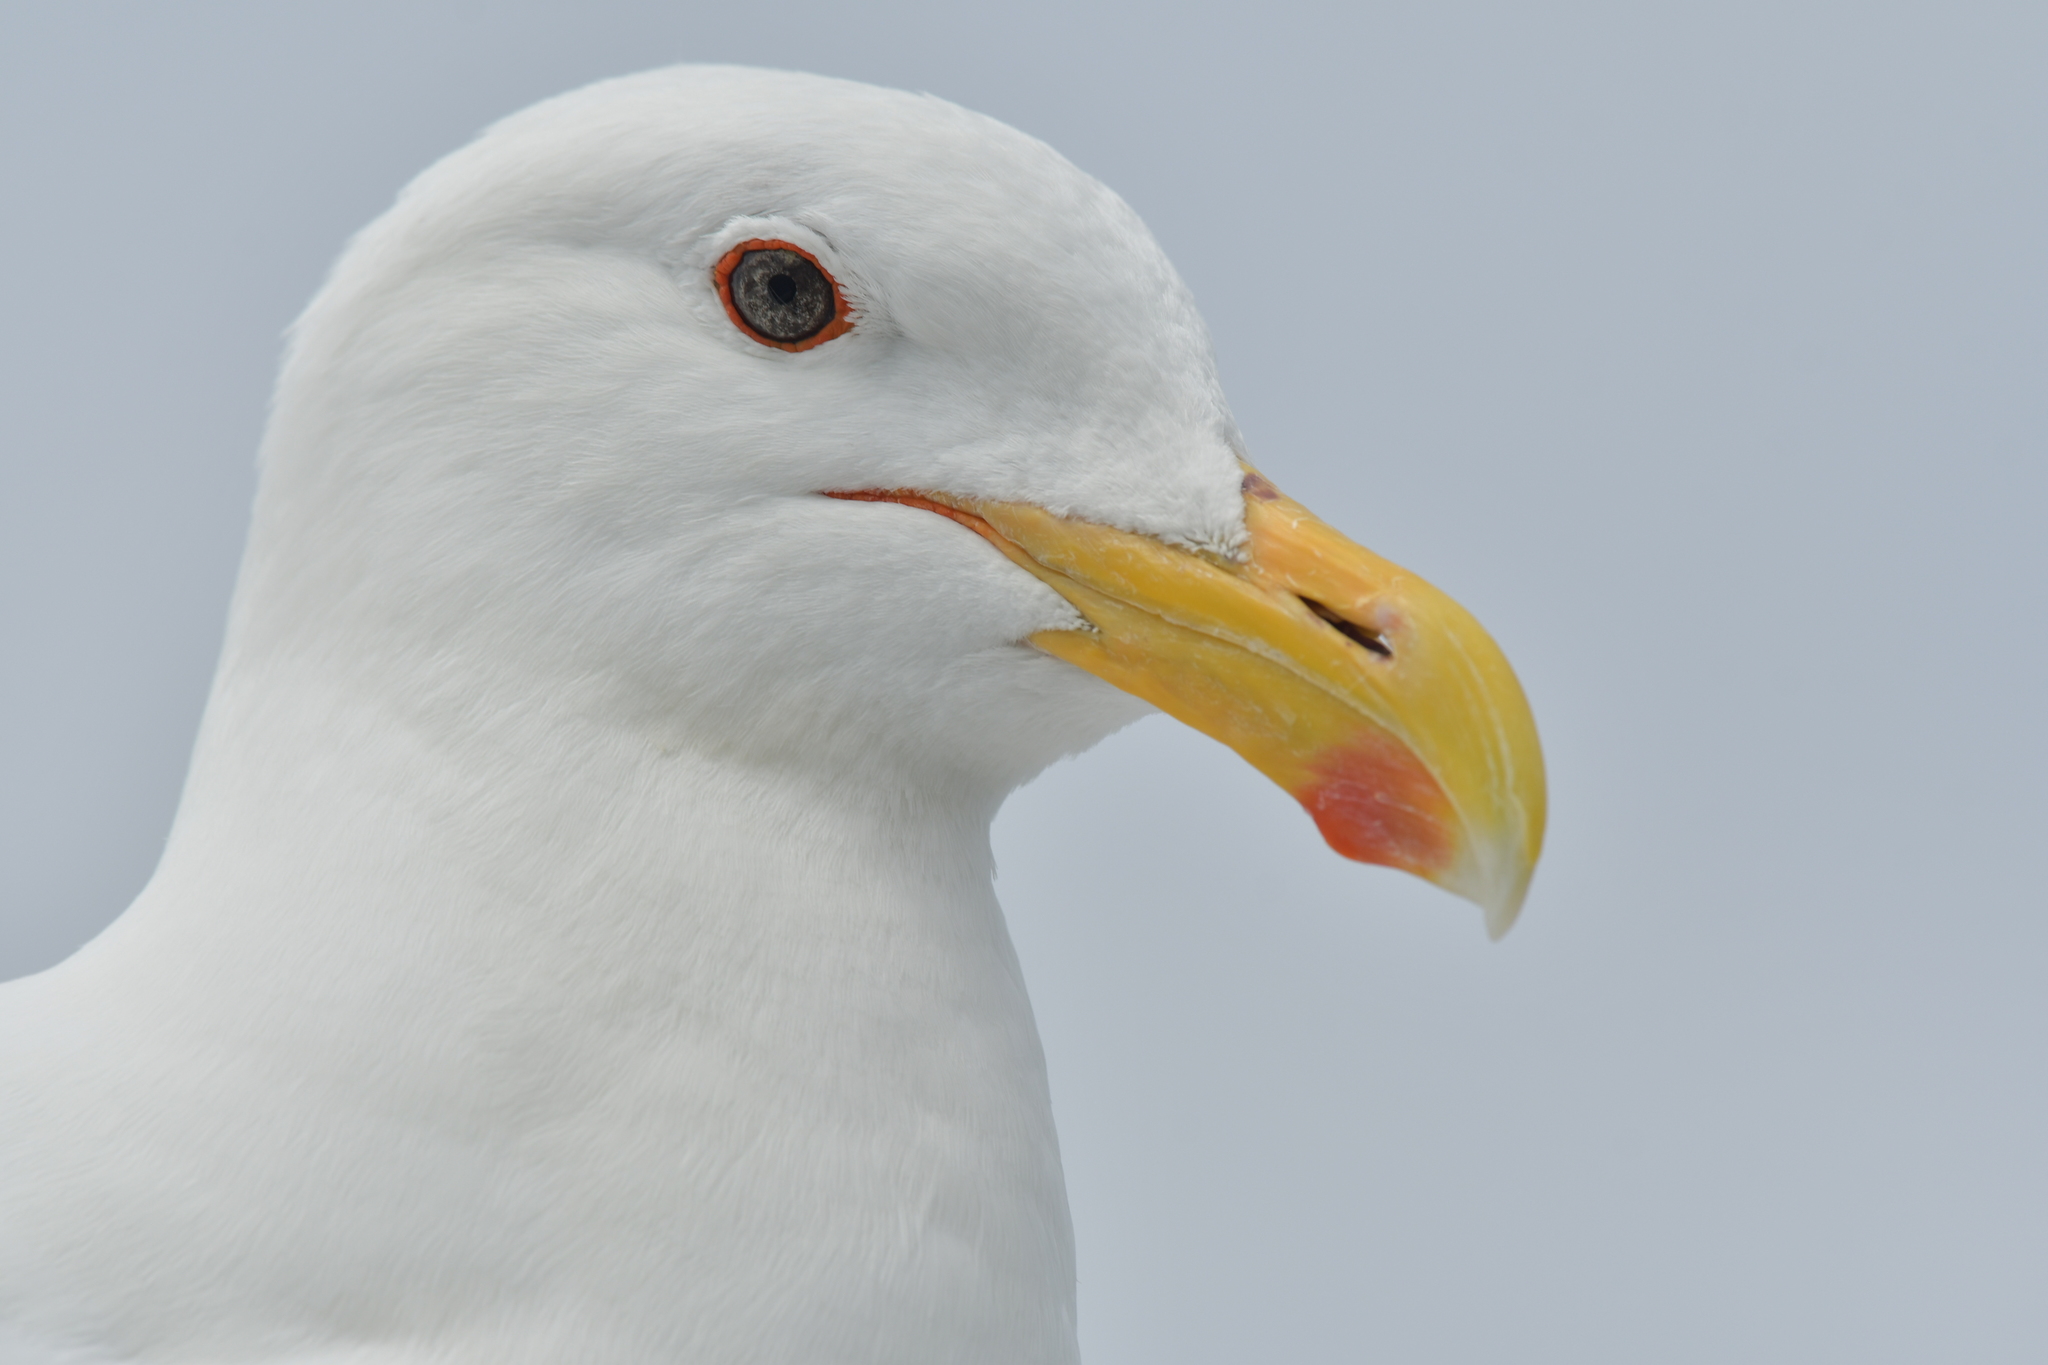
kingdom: Animalia
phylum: Chordata
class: Aves
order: Charadriiformes
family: Laridae
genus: Larus
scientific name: Larus dominicanus
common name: Kelp gull
